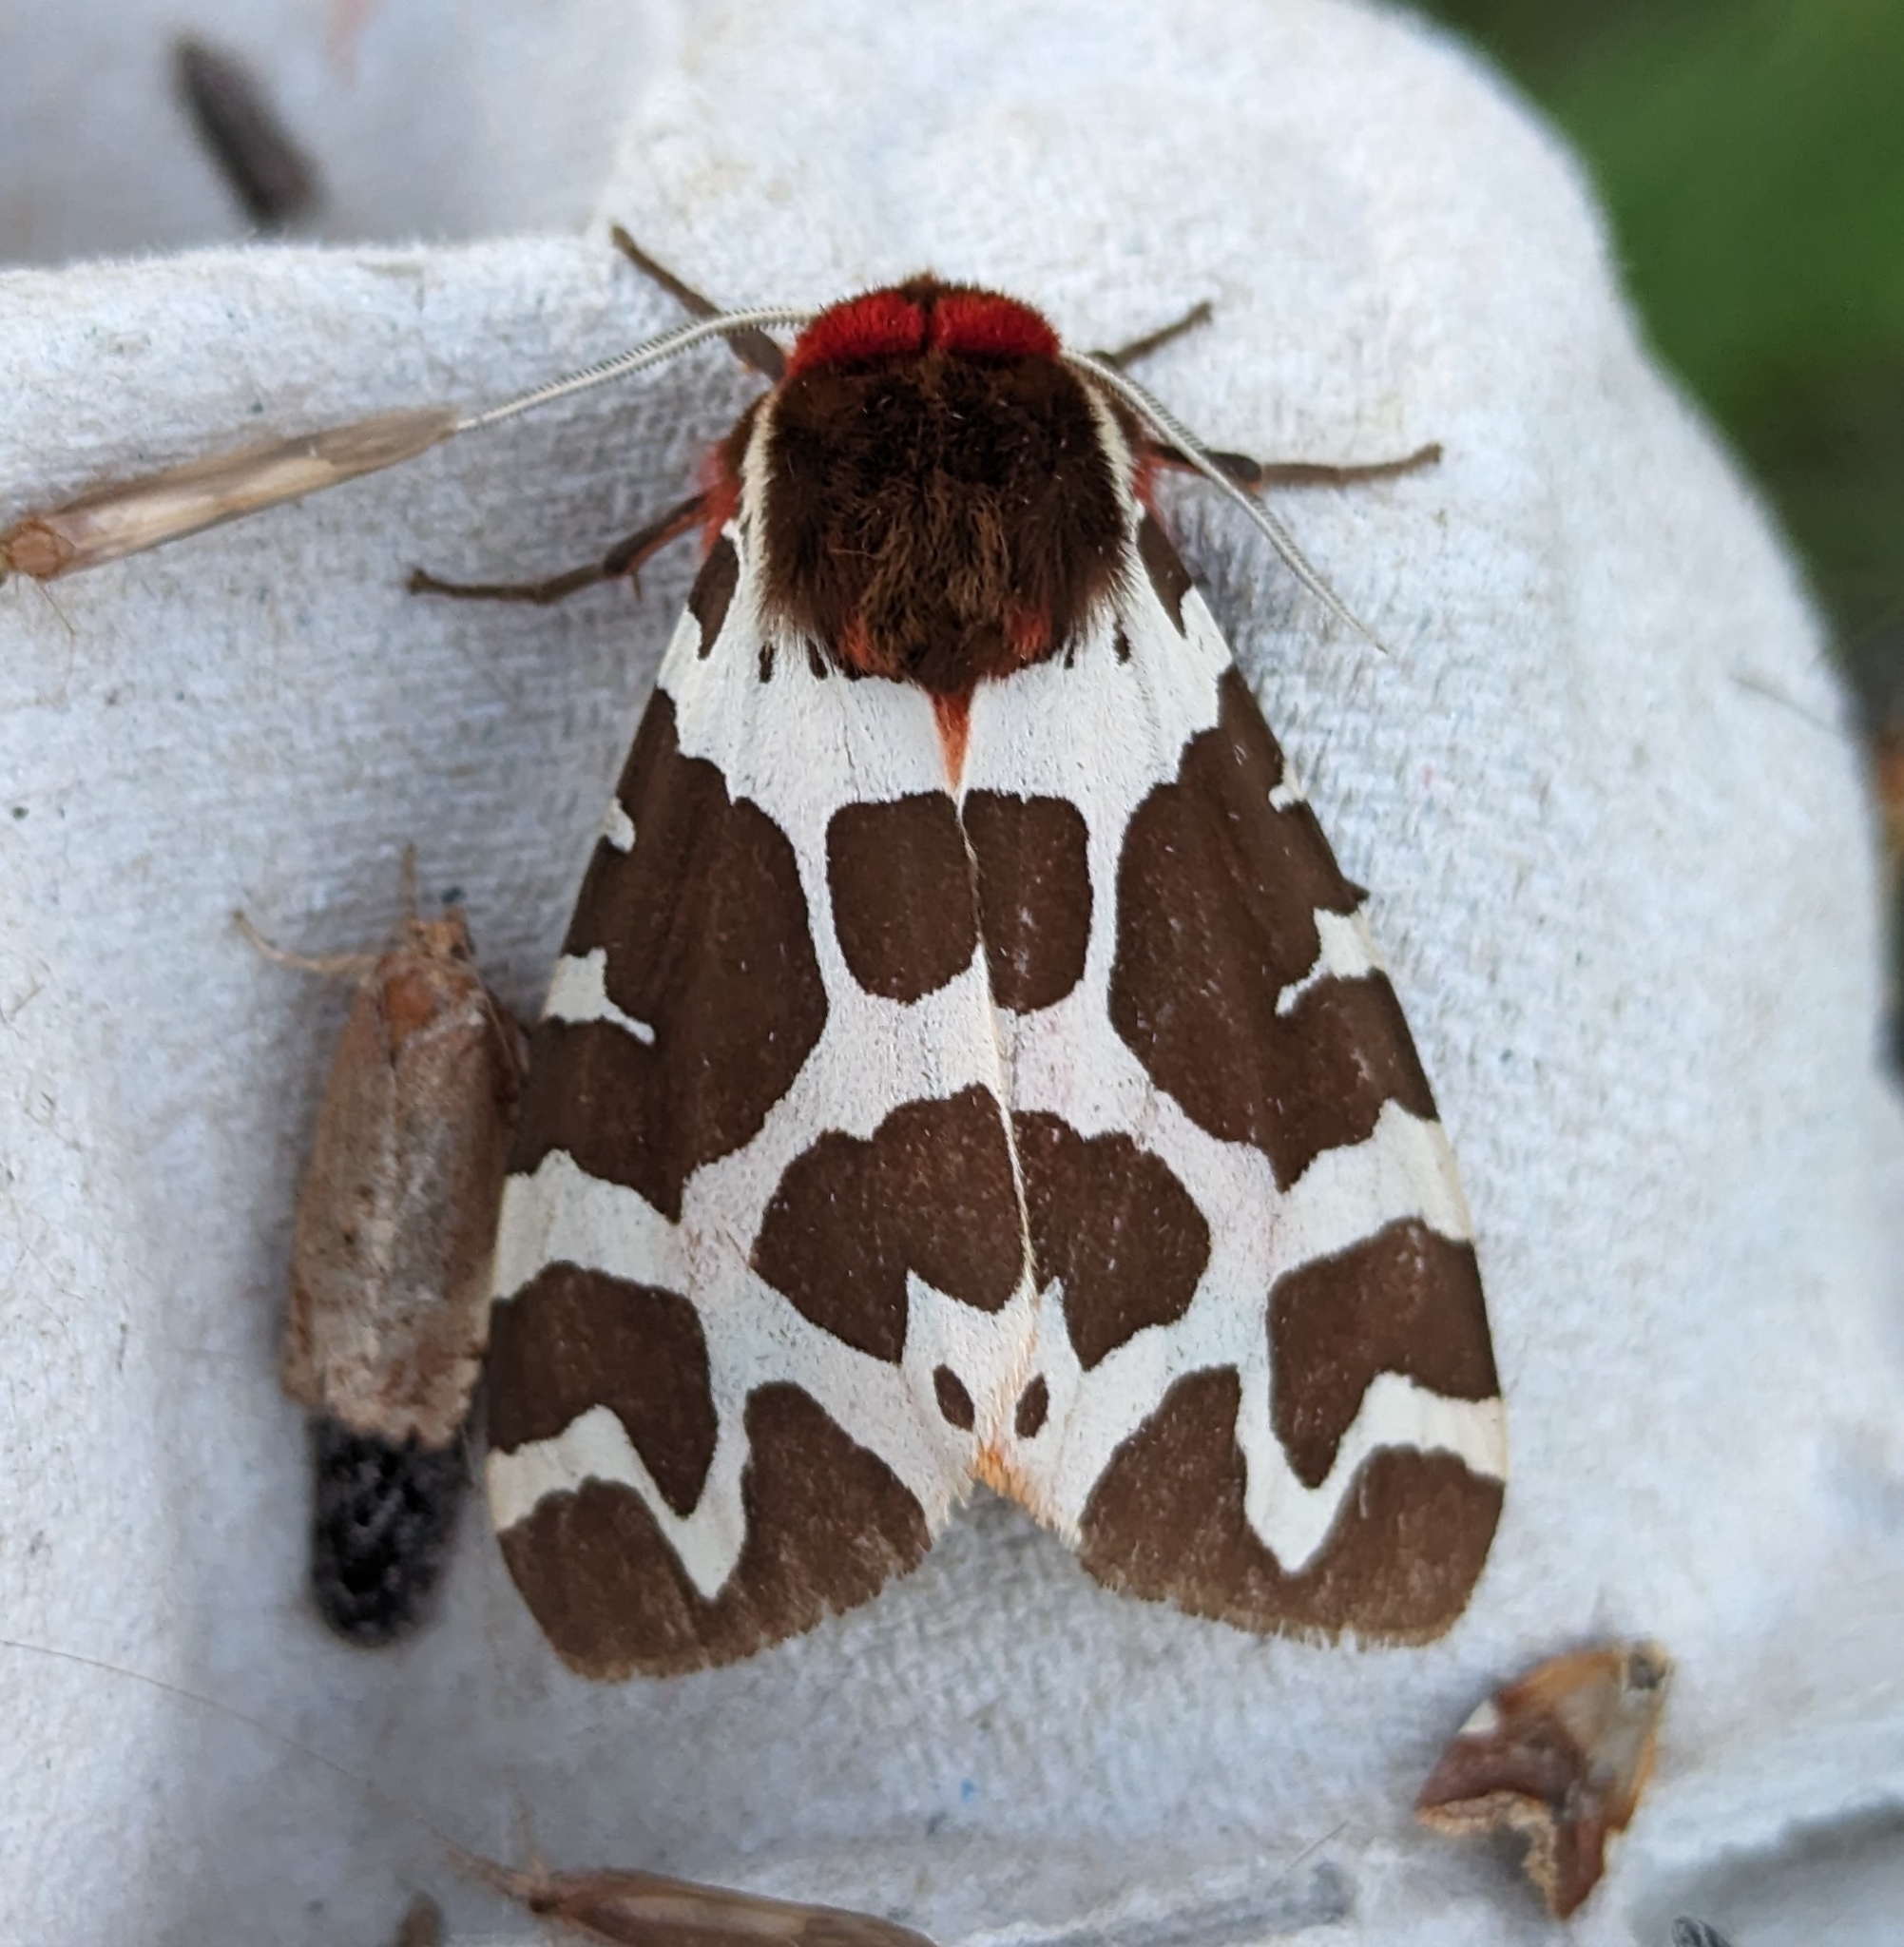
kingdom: Animalia
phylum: Arthropoda
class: Insecta
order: Lepidoptera
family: Erebidae
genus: Arctia
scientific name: Arctia caja
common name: Garden tiger
